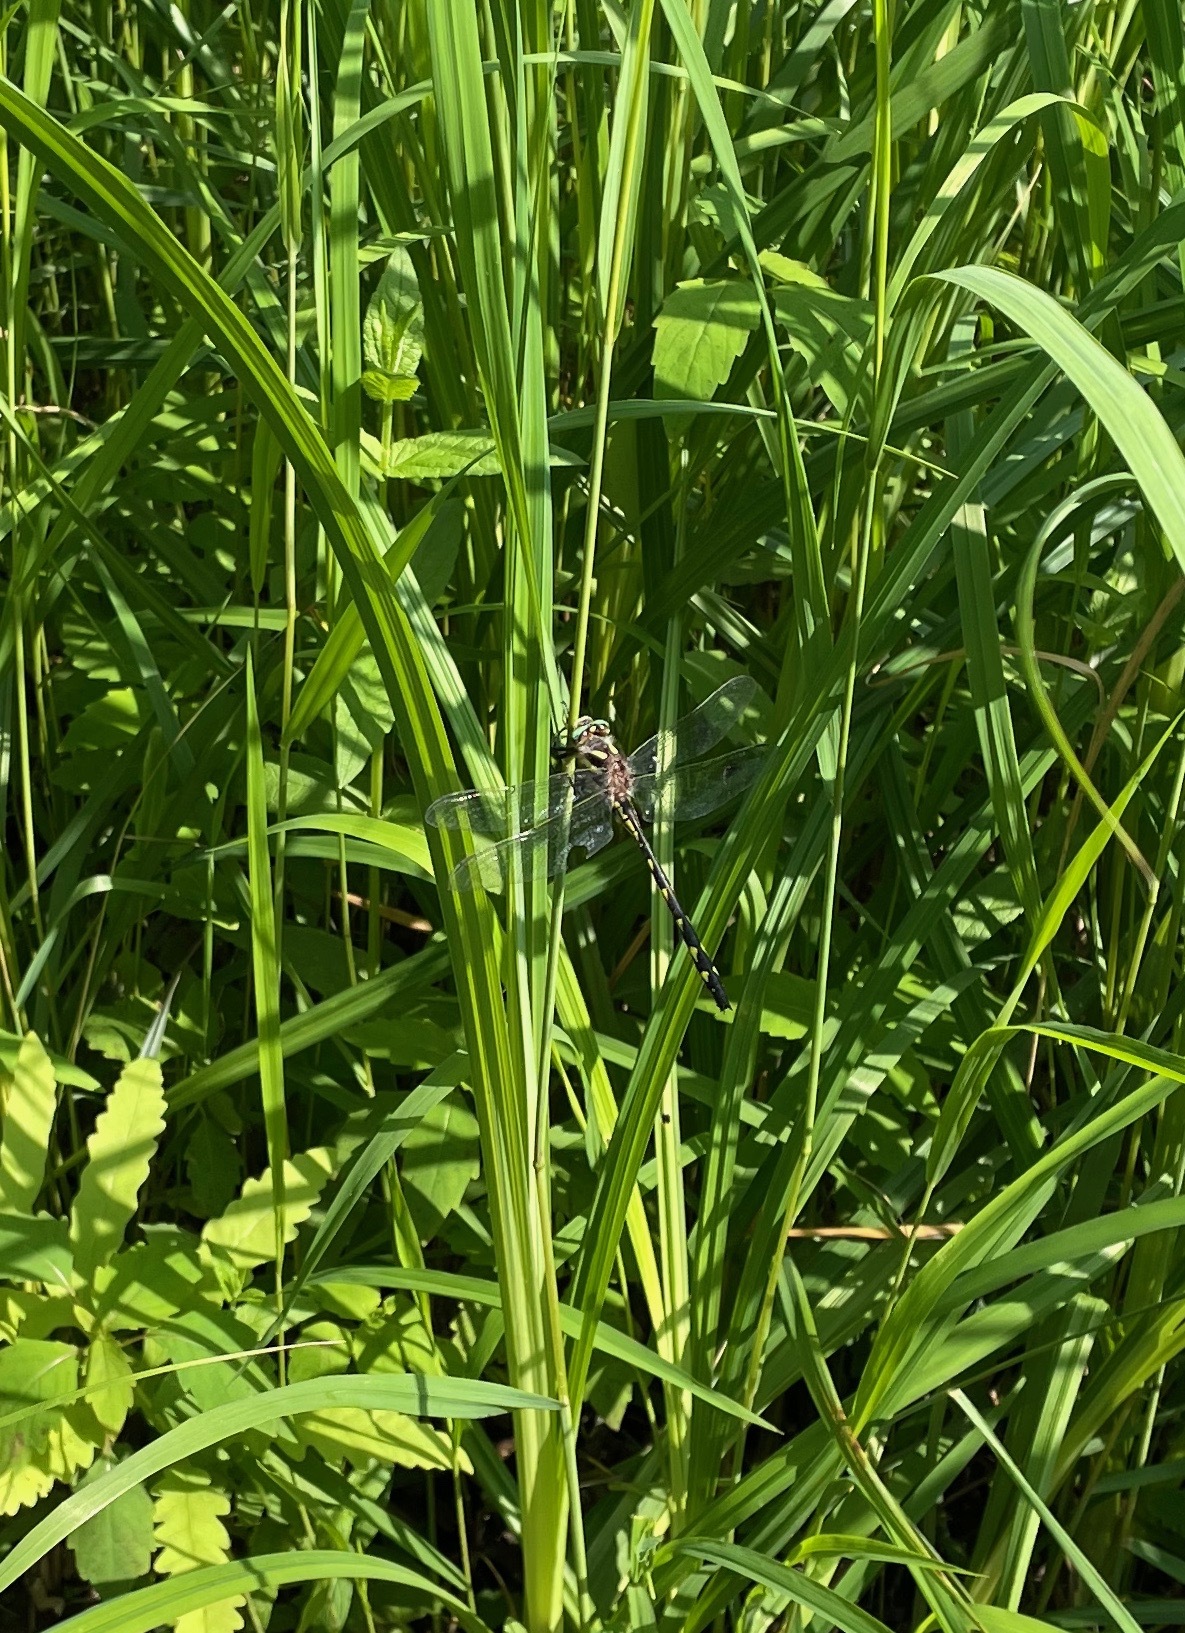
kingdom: Animalia
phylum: Arthropoda
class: Insecta
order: Odonata
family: Cordulegastridae
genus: Cordulegaster
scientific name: Cordulegaster diastatops
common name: Delta-spotted spiketail
